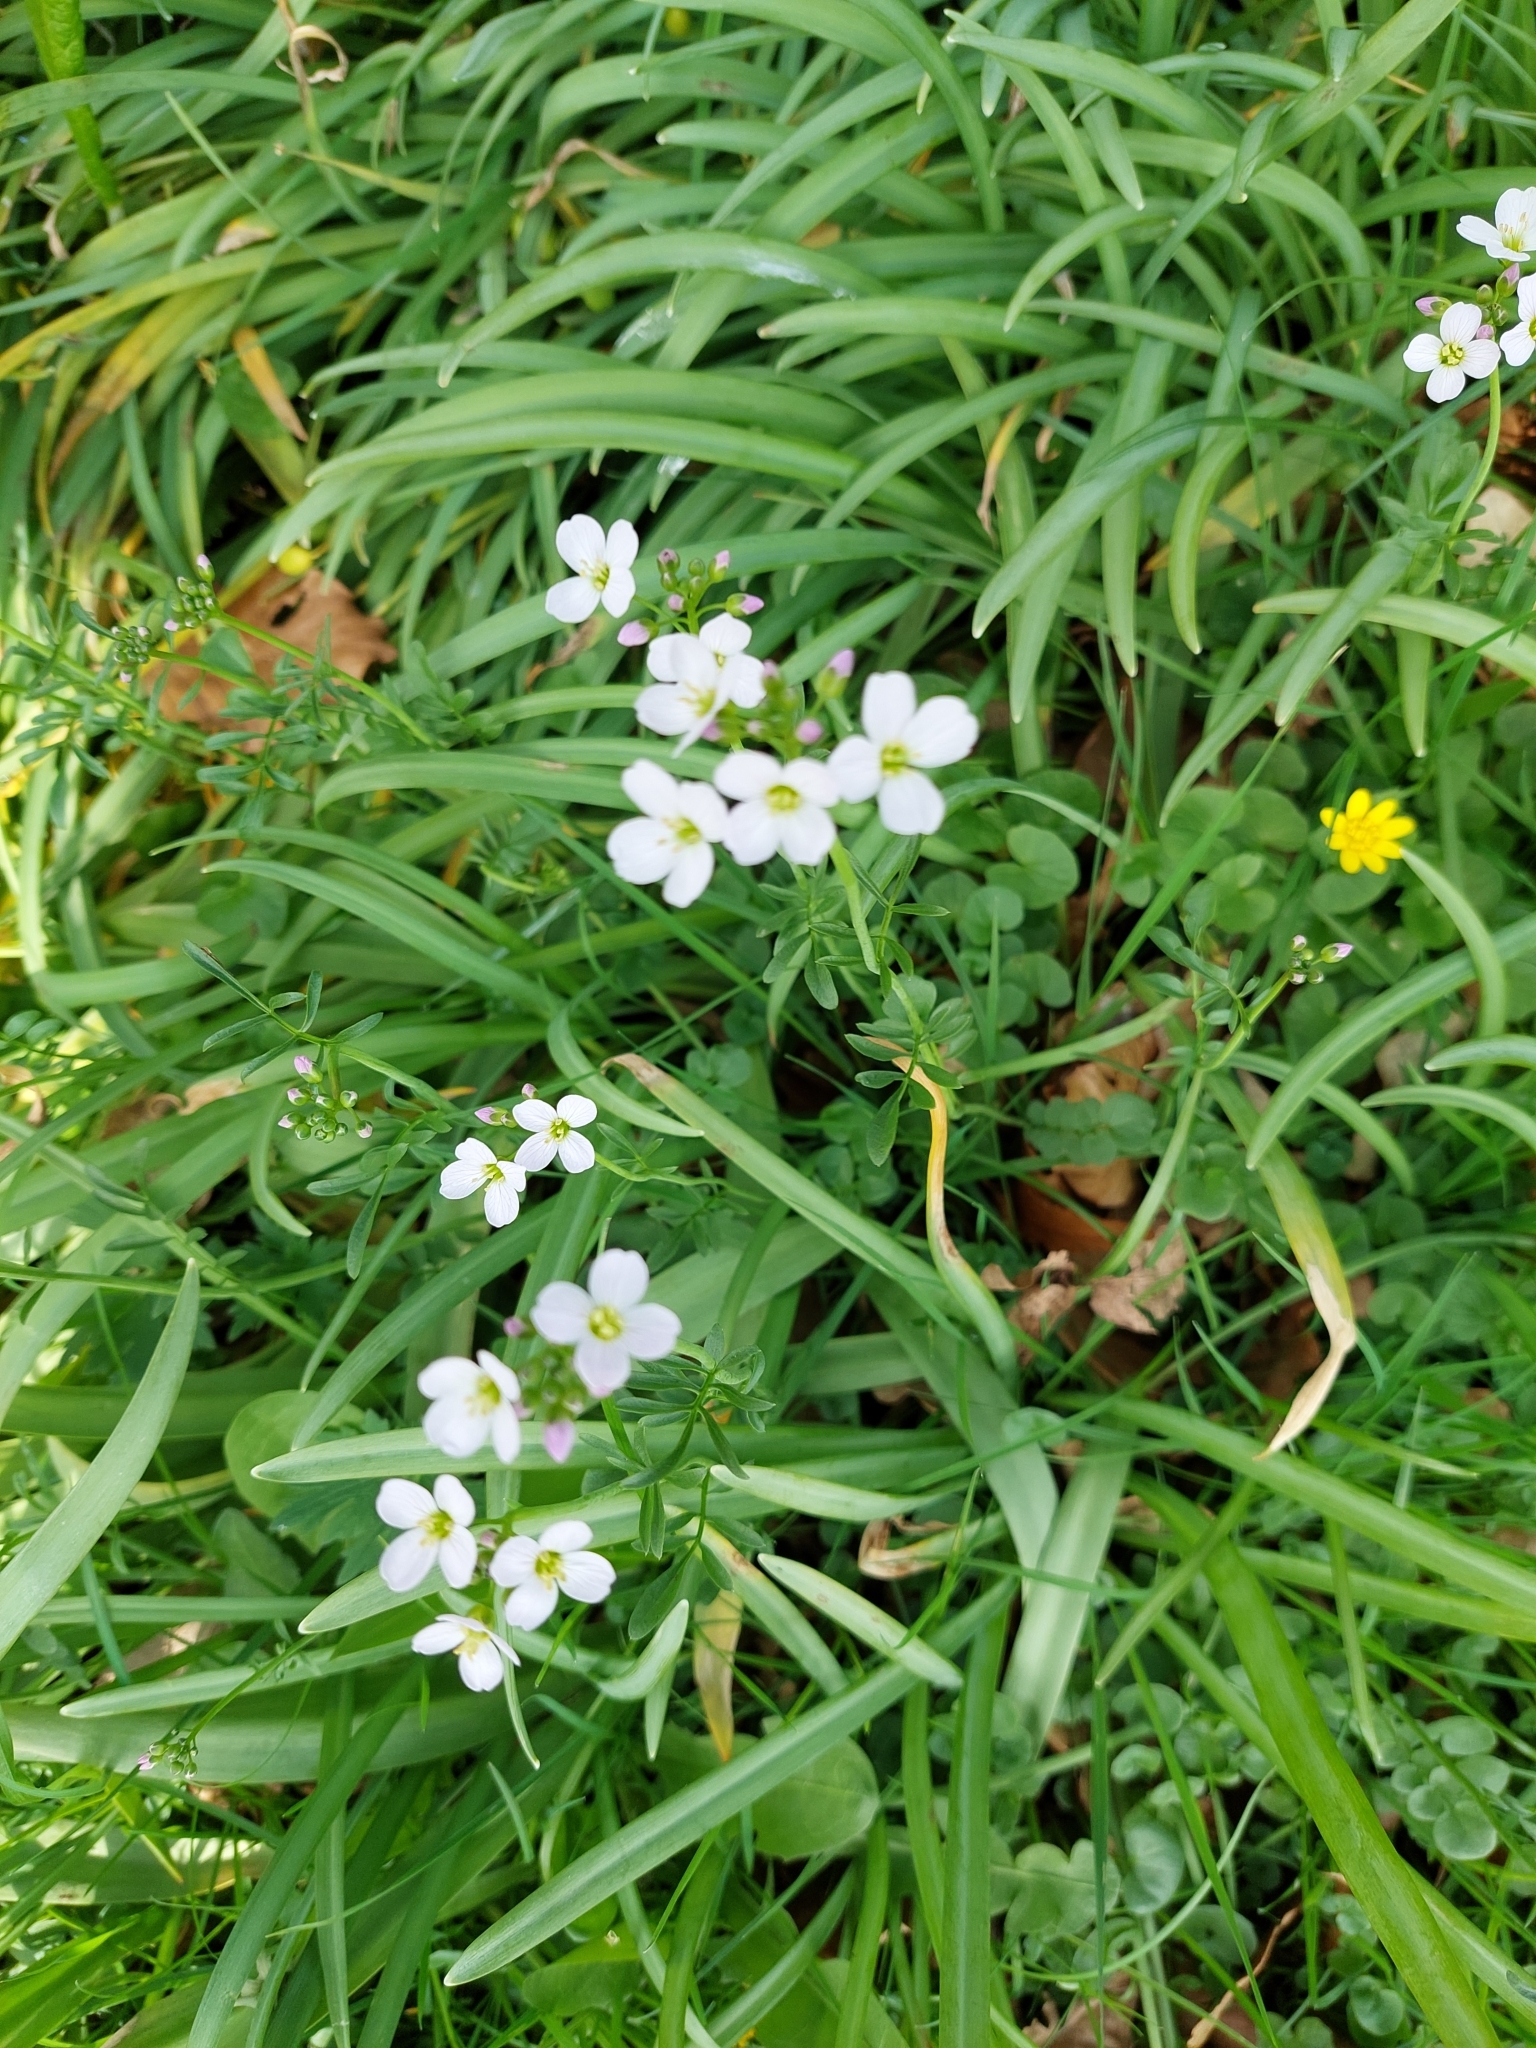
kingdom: Plantae
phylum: Tracheophyta
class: Magnoliopsida
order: Brassicales
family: Brassicaceae
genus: Cardamine
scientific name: Cardamine pratensis
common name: Cuckoo flower
